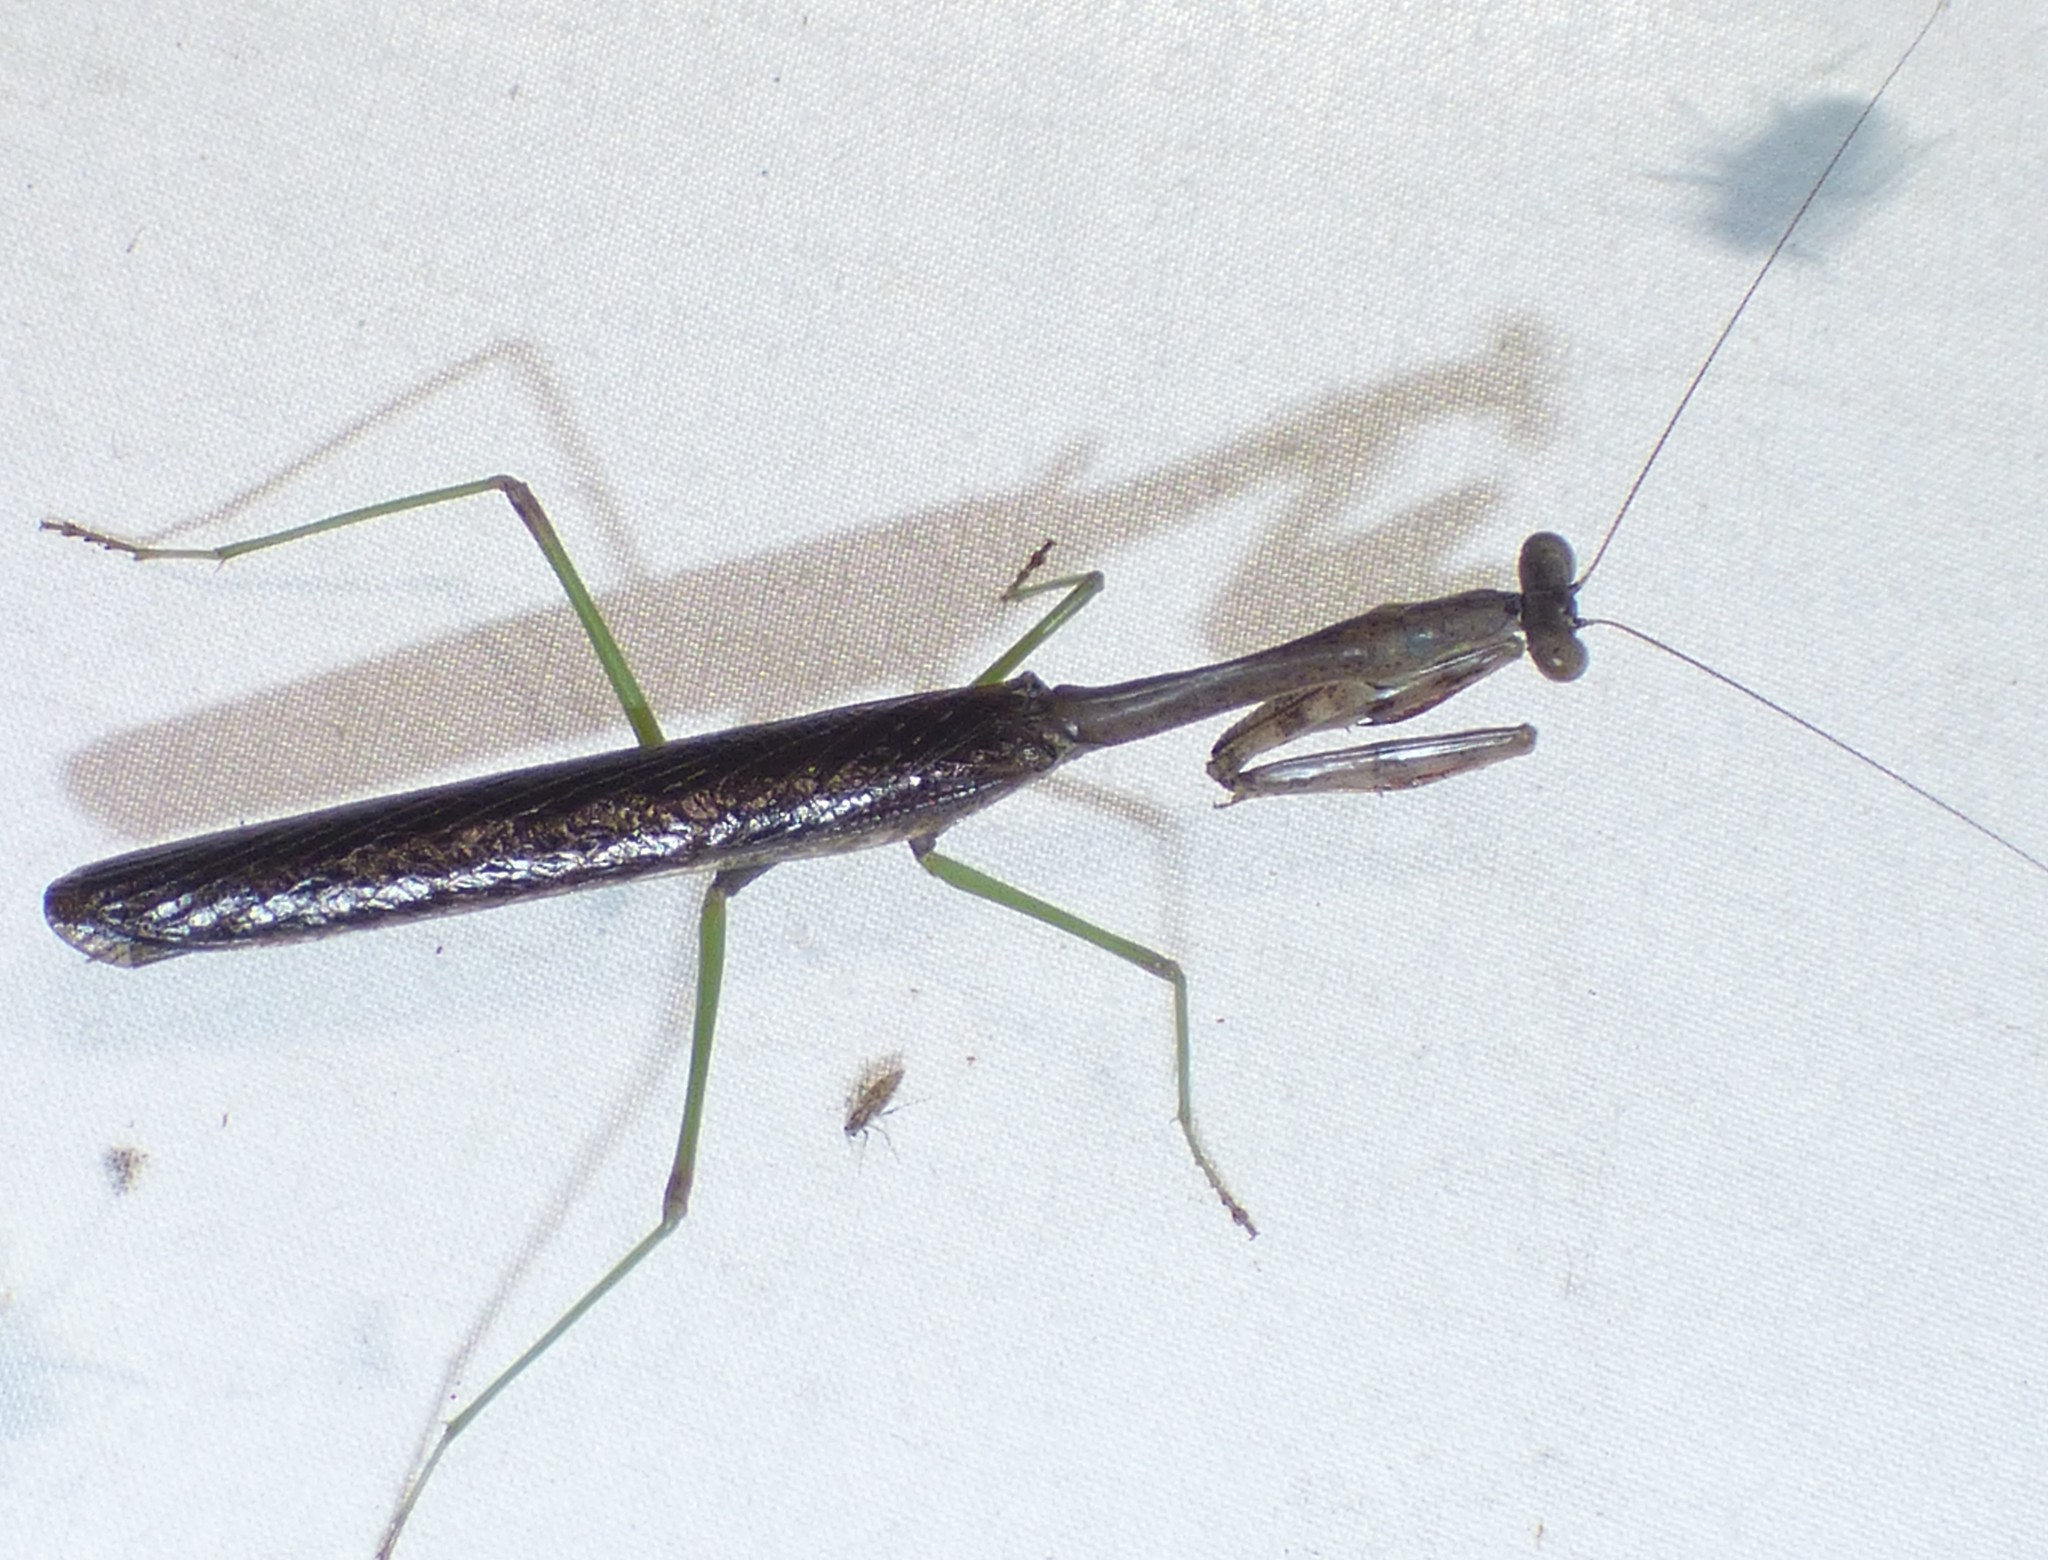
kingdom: Animalia
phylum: Arthropoda
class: Insecta
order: Mantodea
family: Mantidae
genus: Stagmomantis
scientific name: Stagmomantis carolina
